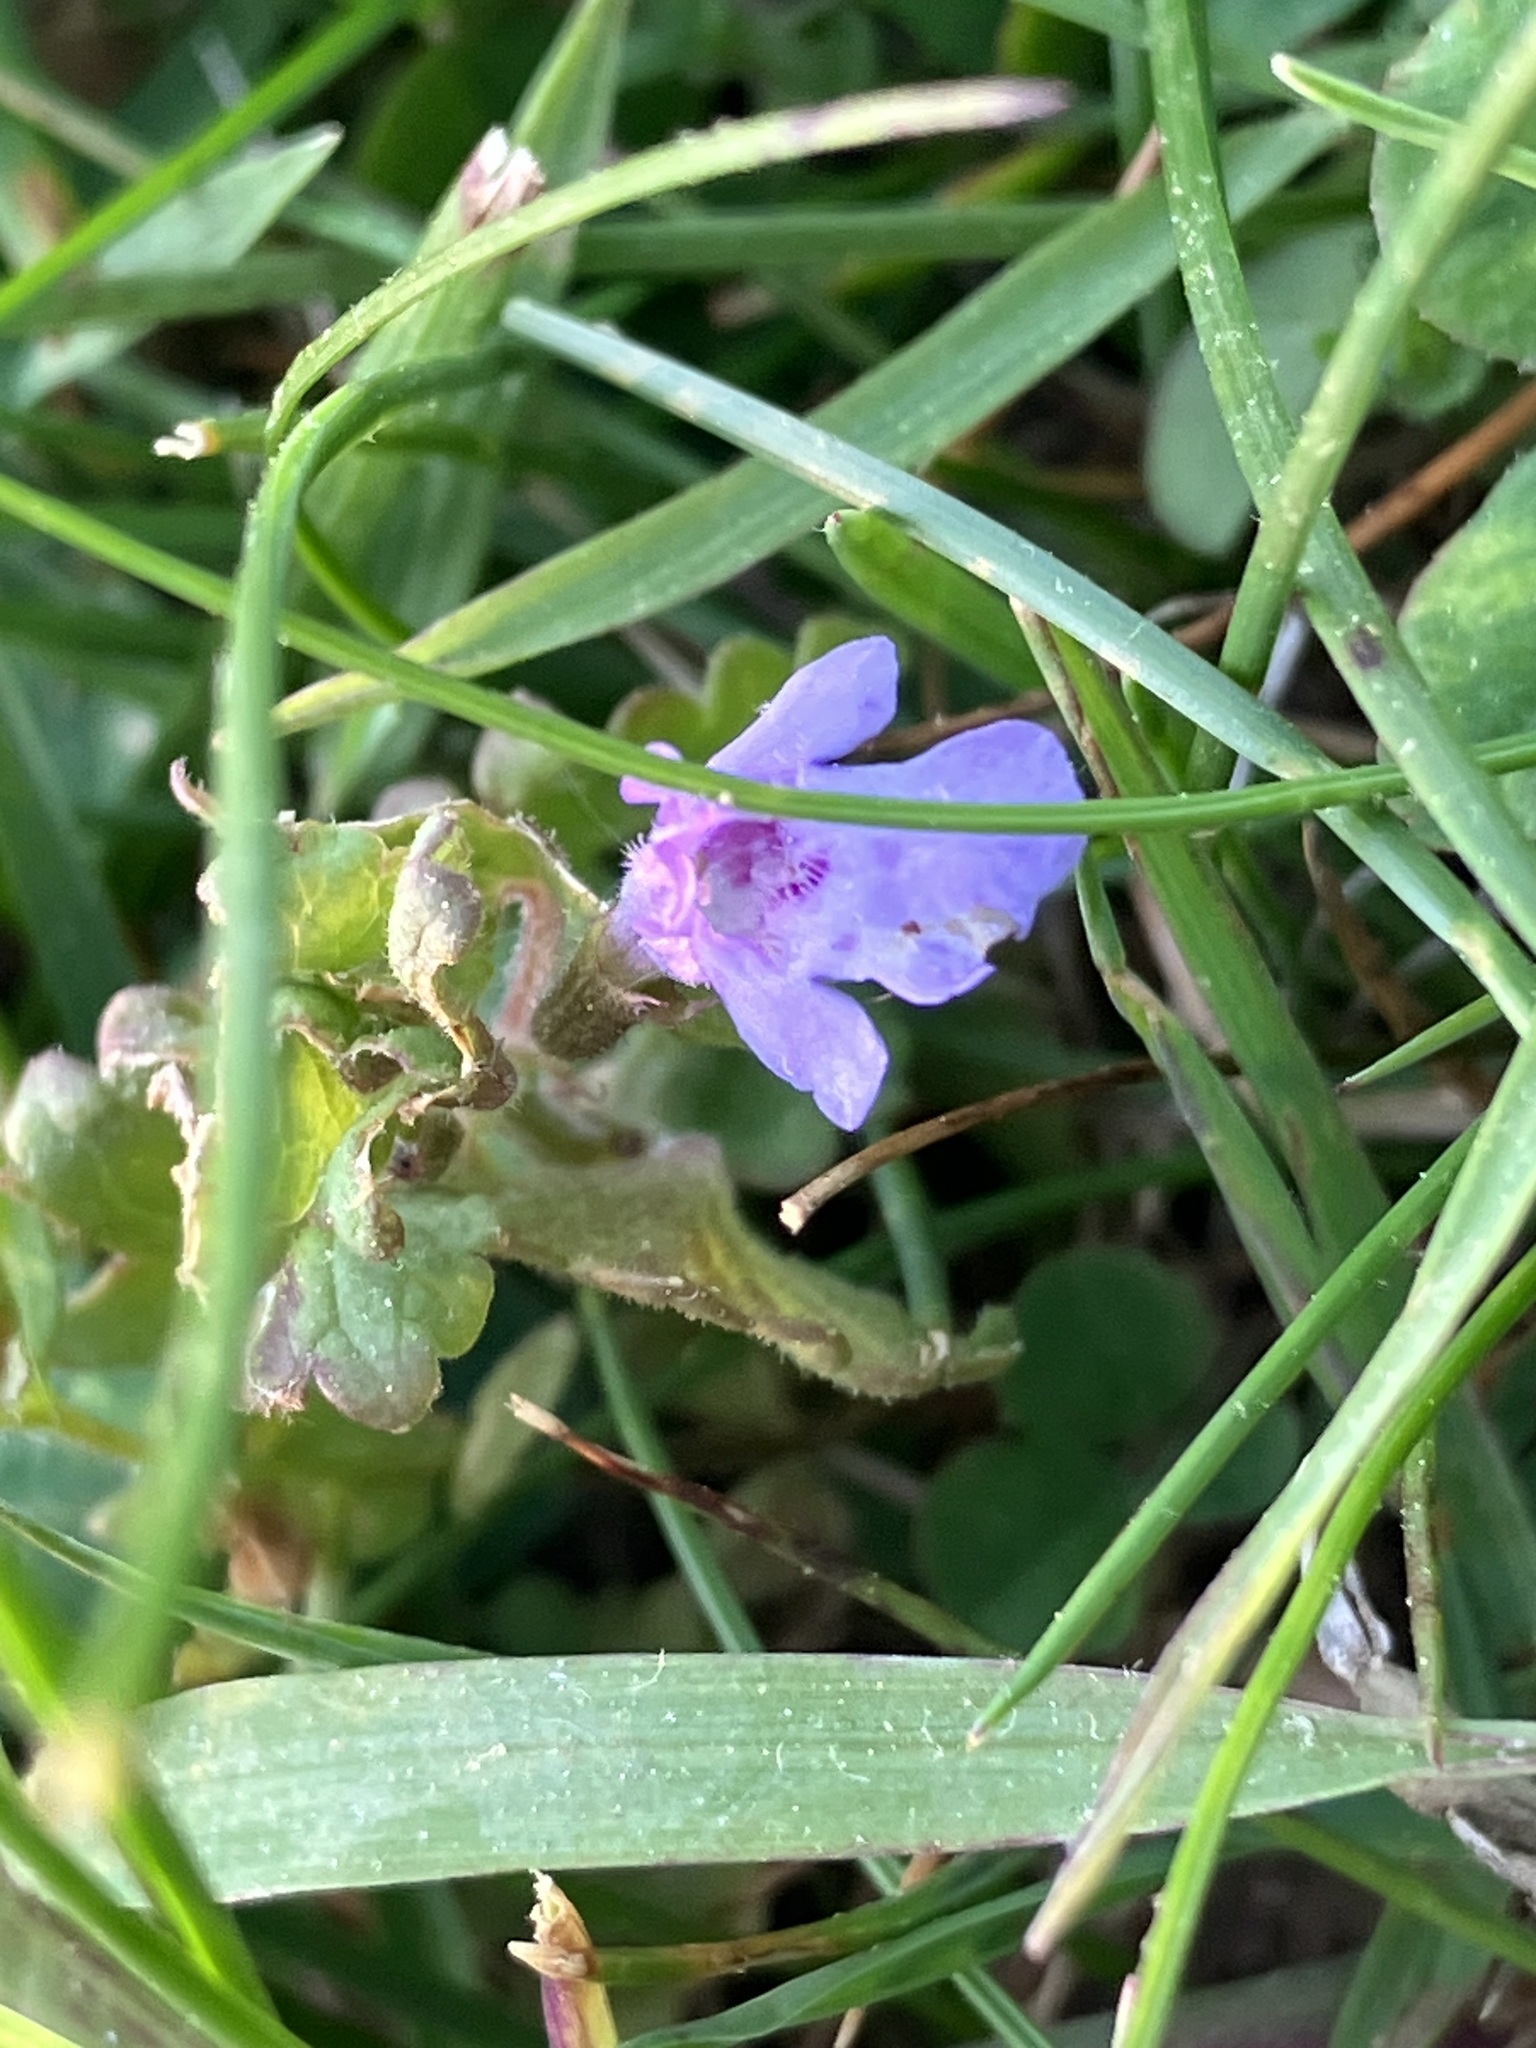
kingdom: Plantae
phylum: Tracheophyta
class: Magnoliopsida
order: Lamiales
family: Lamiaceae
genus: Glechoma
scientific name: Glechoma hederacea
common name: Ground ivy
